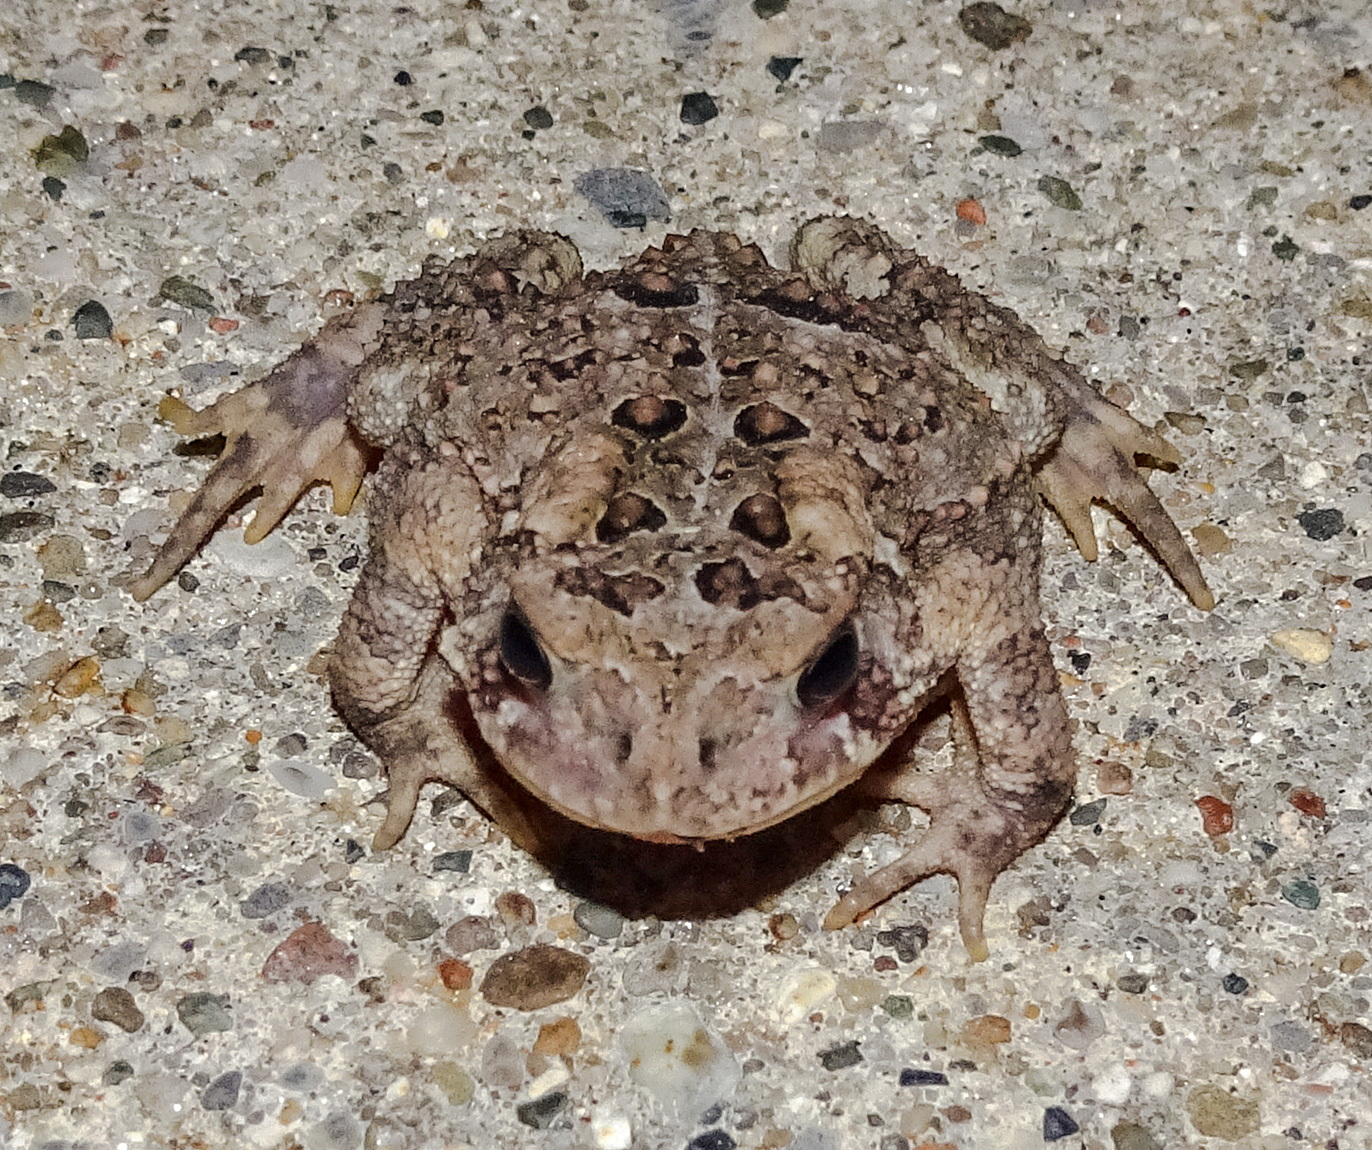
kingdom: Animalia
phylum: Chordata
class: Amphibia
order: Anura
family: Bufonidae
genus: Anaxyrus
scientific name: Anaxyrus americanus
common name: American toad
